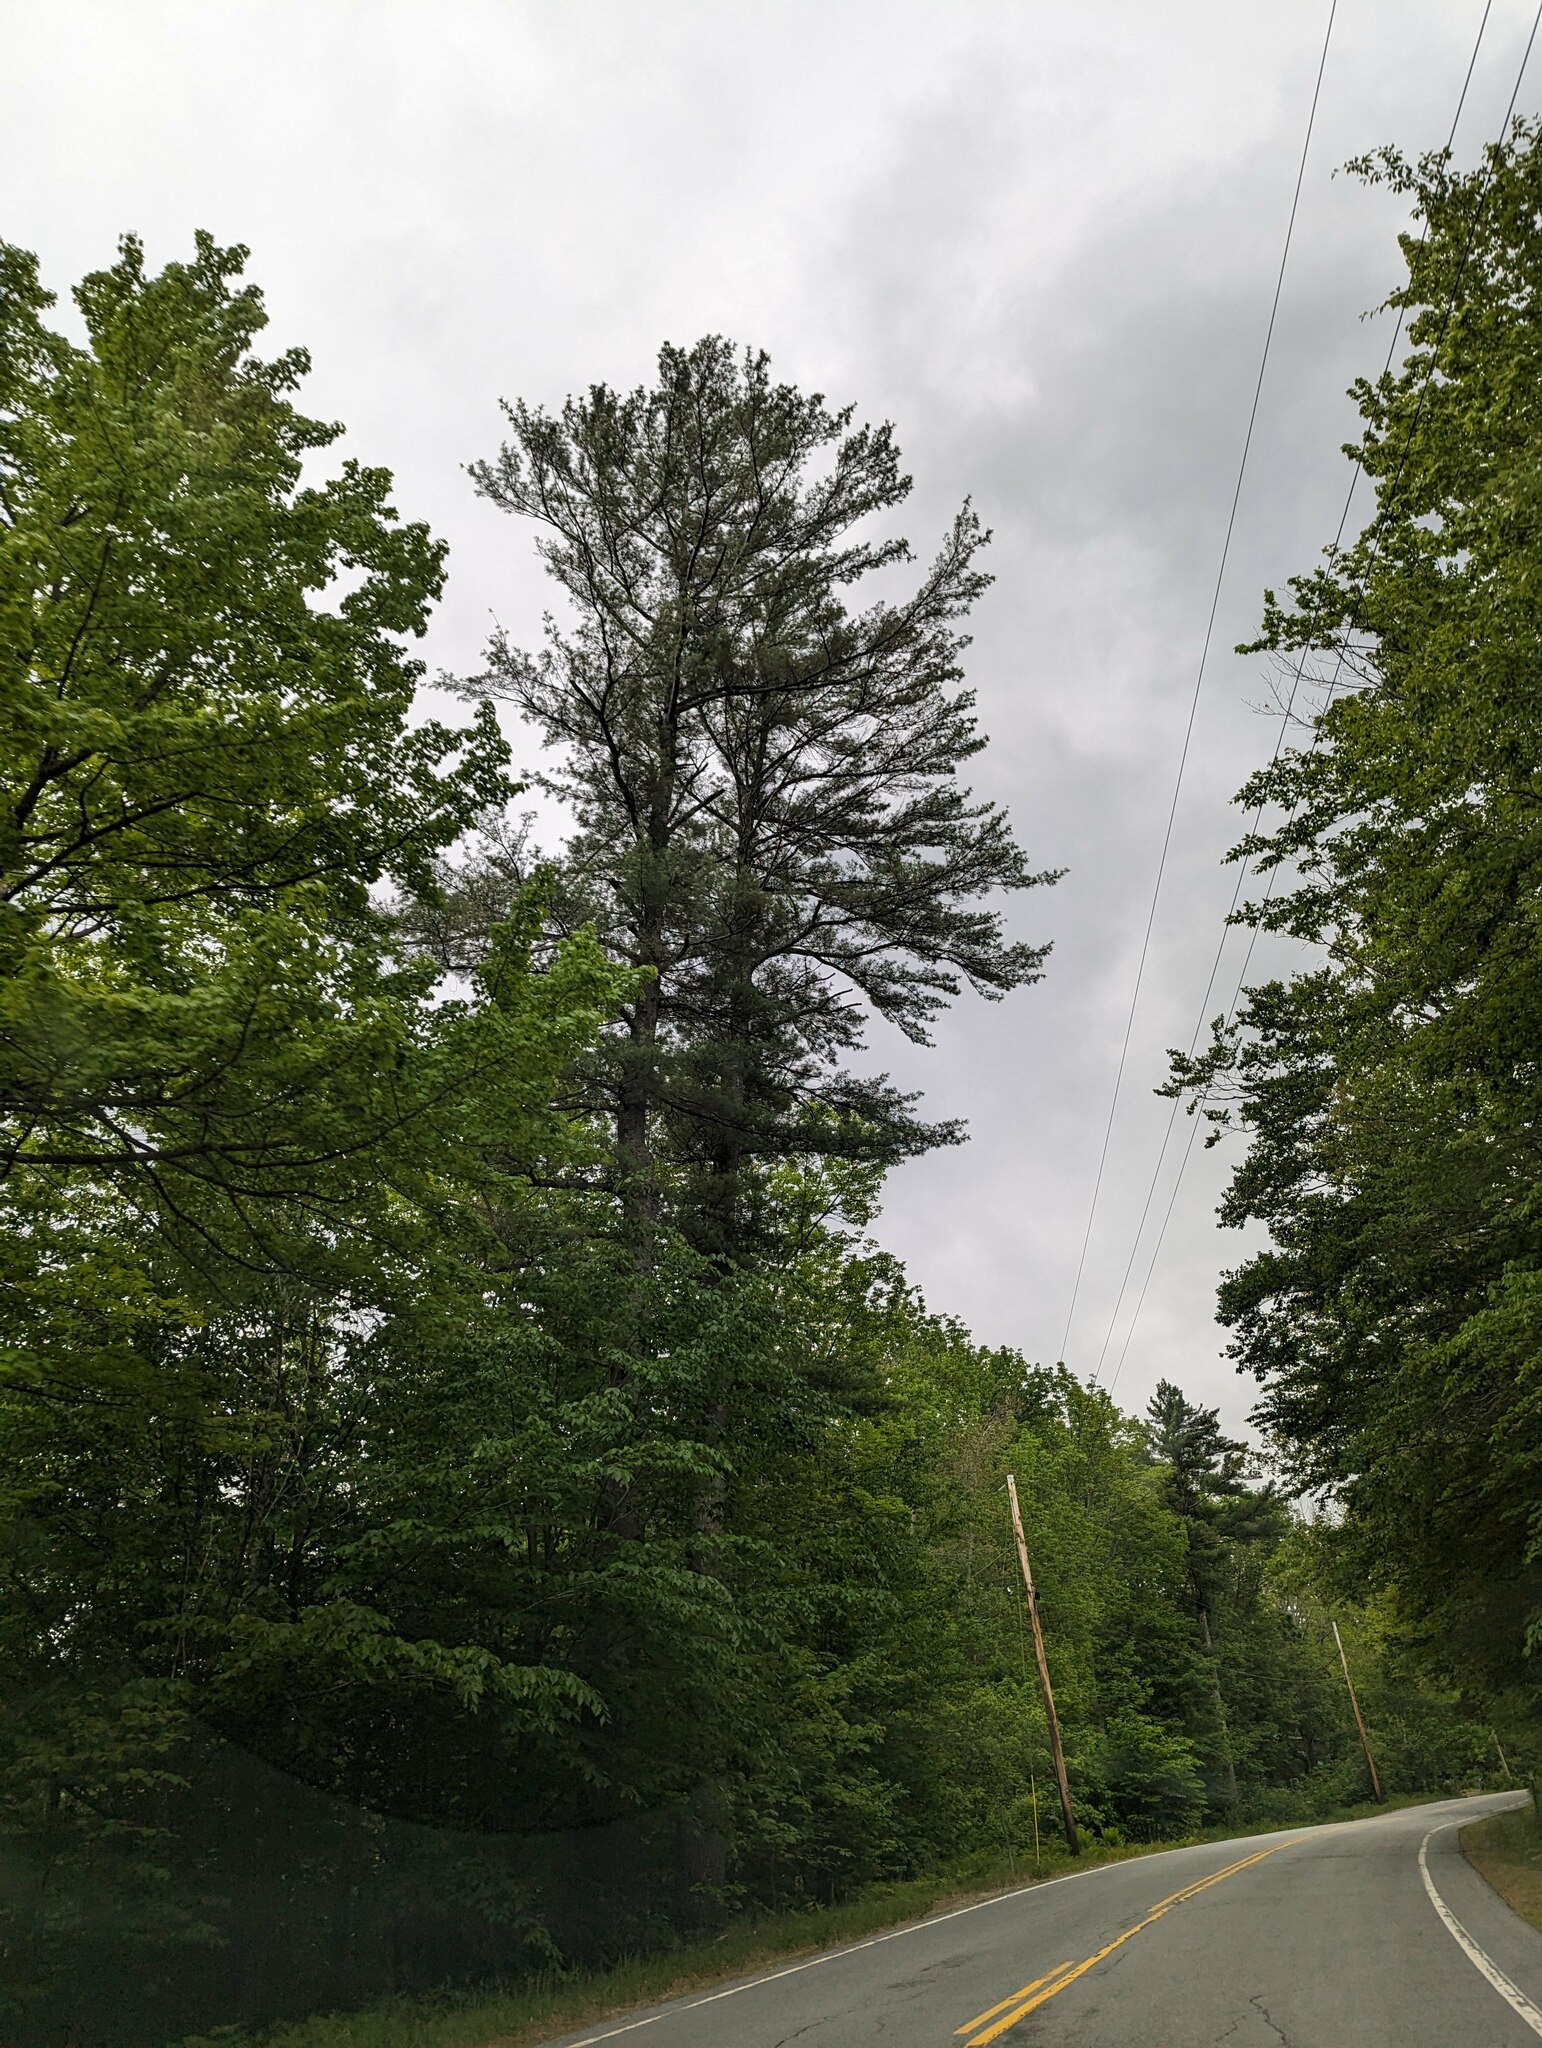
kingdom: Plantae
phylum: Tracheophyta
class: Pinopsida
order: Pinales
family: Pinaceae
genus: Pinus
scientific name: Pinus strobus
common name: Weymouth pine
